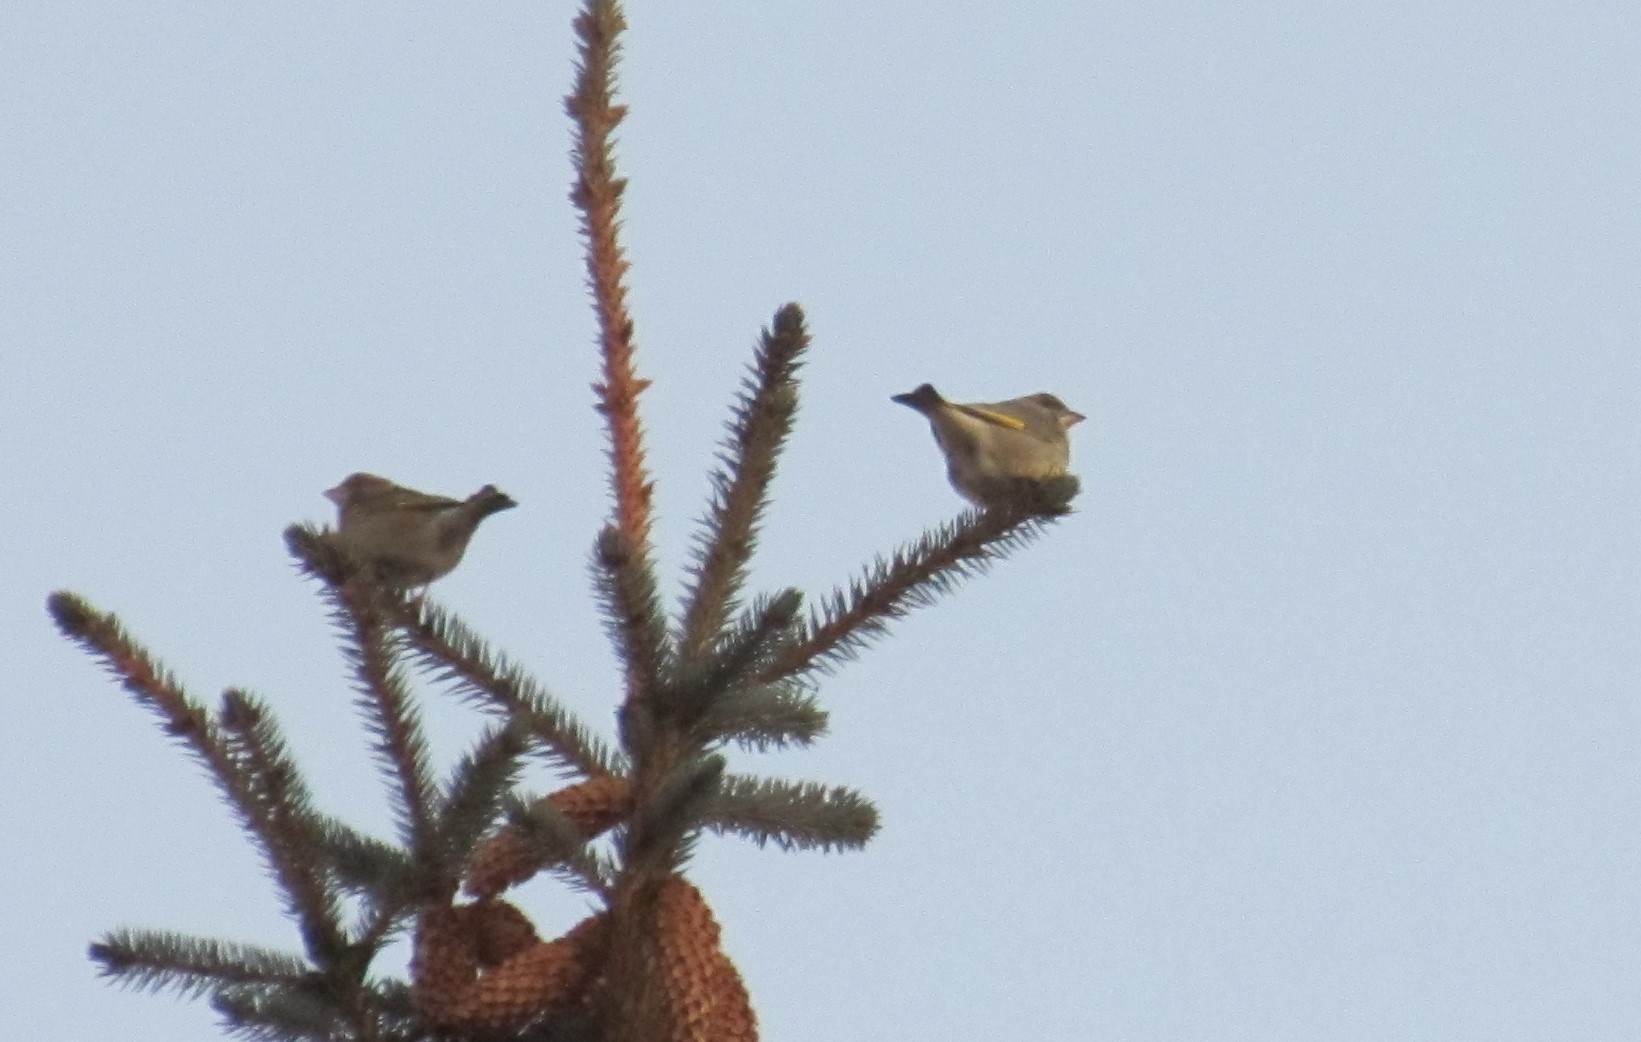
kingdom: Plantae
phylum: Tracheophyta
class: Liliopsida
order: Poales
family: Poaceae
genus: Chloris
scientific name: Chloris chloris
